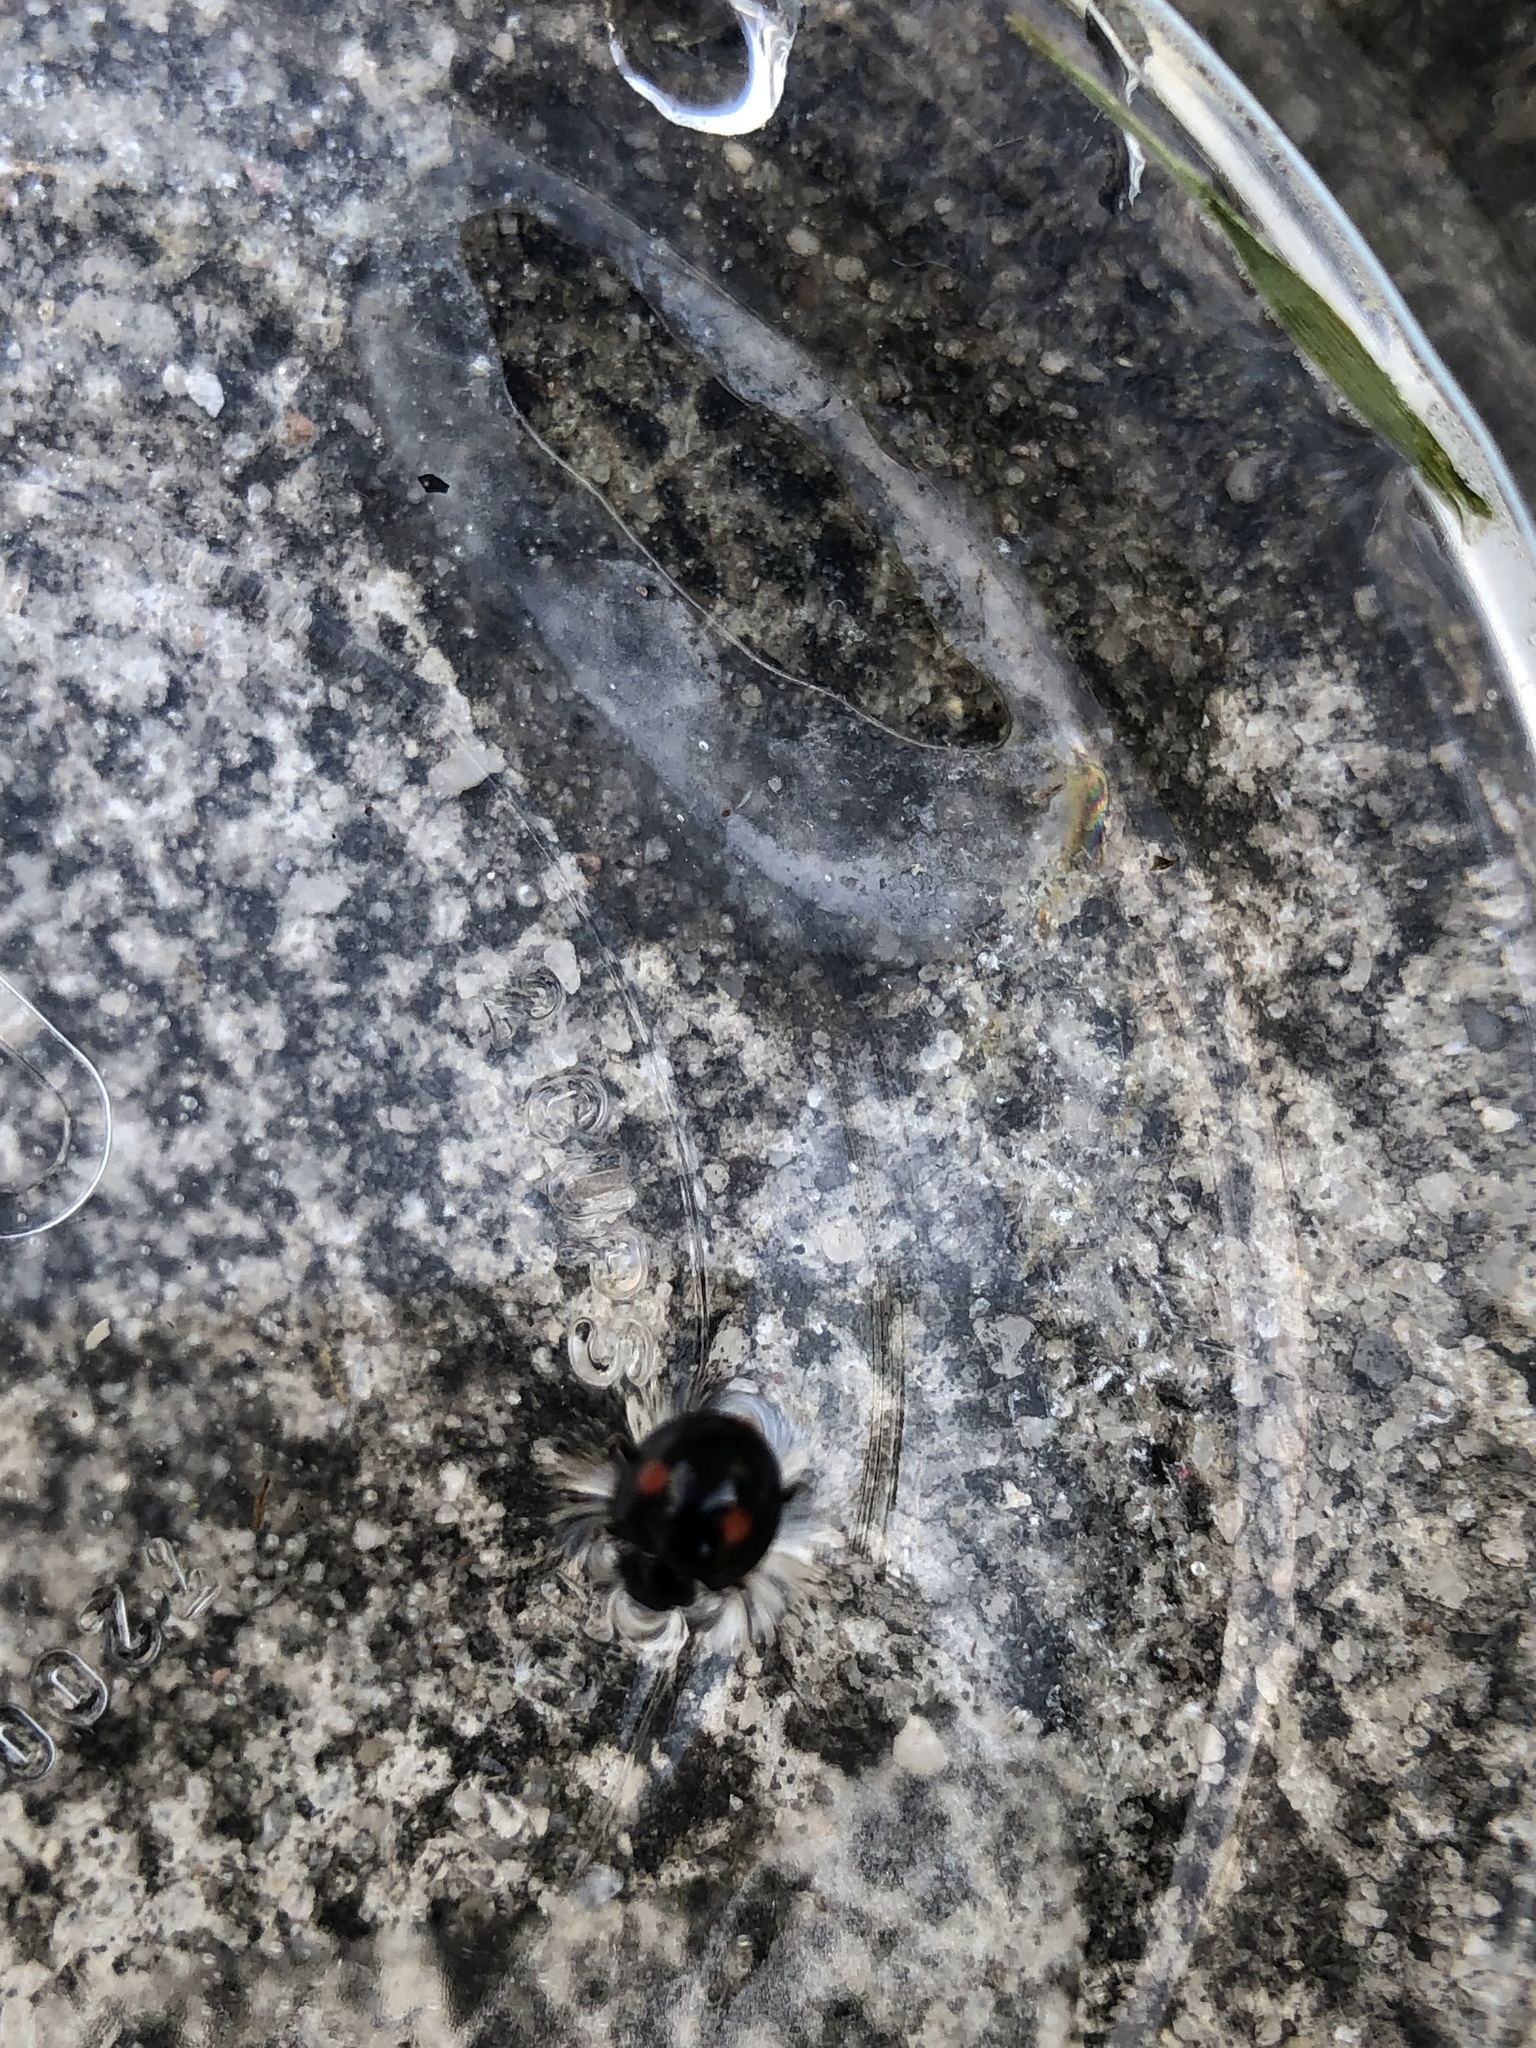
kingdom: Animalia
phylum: Arthropoda
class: Insecta
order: Coleoptera
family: Coccinellidae
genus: Chilocorus
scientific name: Chilocorus stigma
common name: Twicestabbed lady beetle
